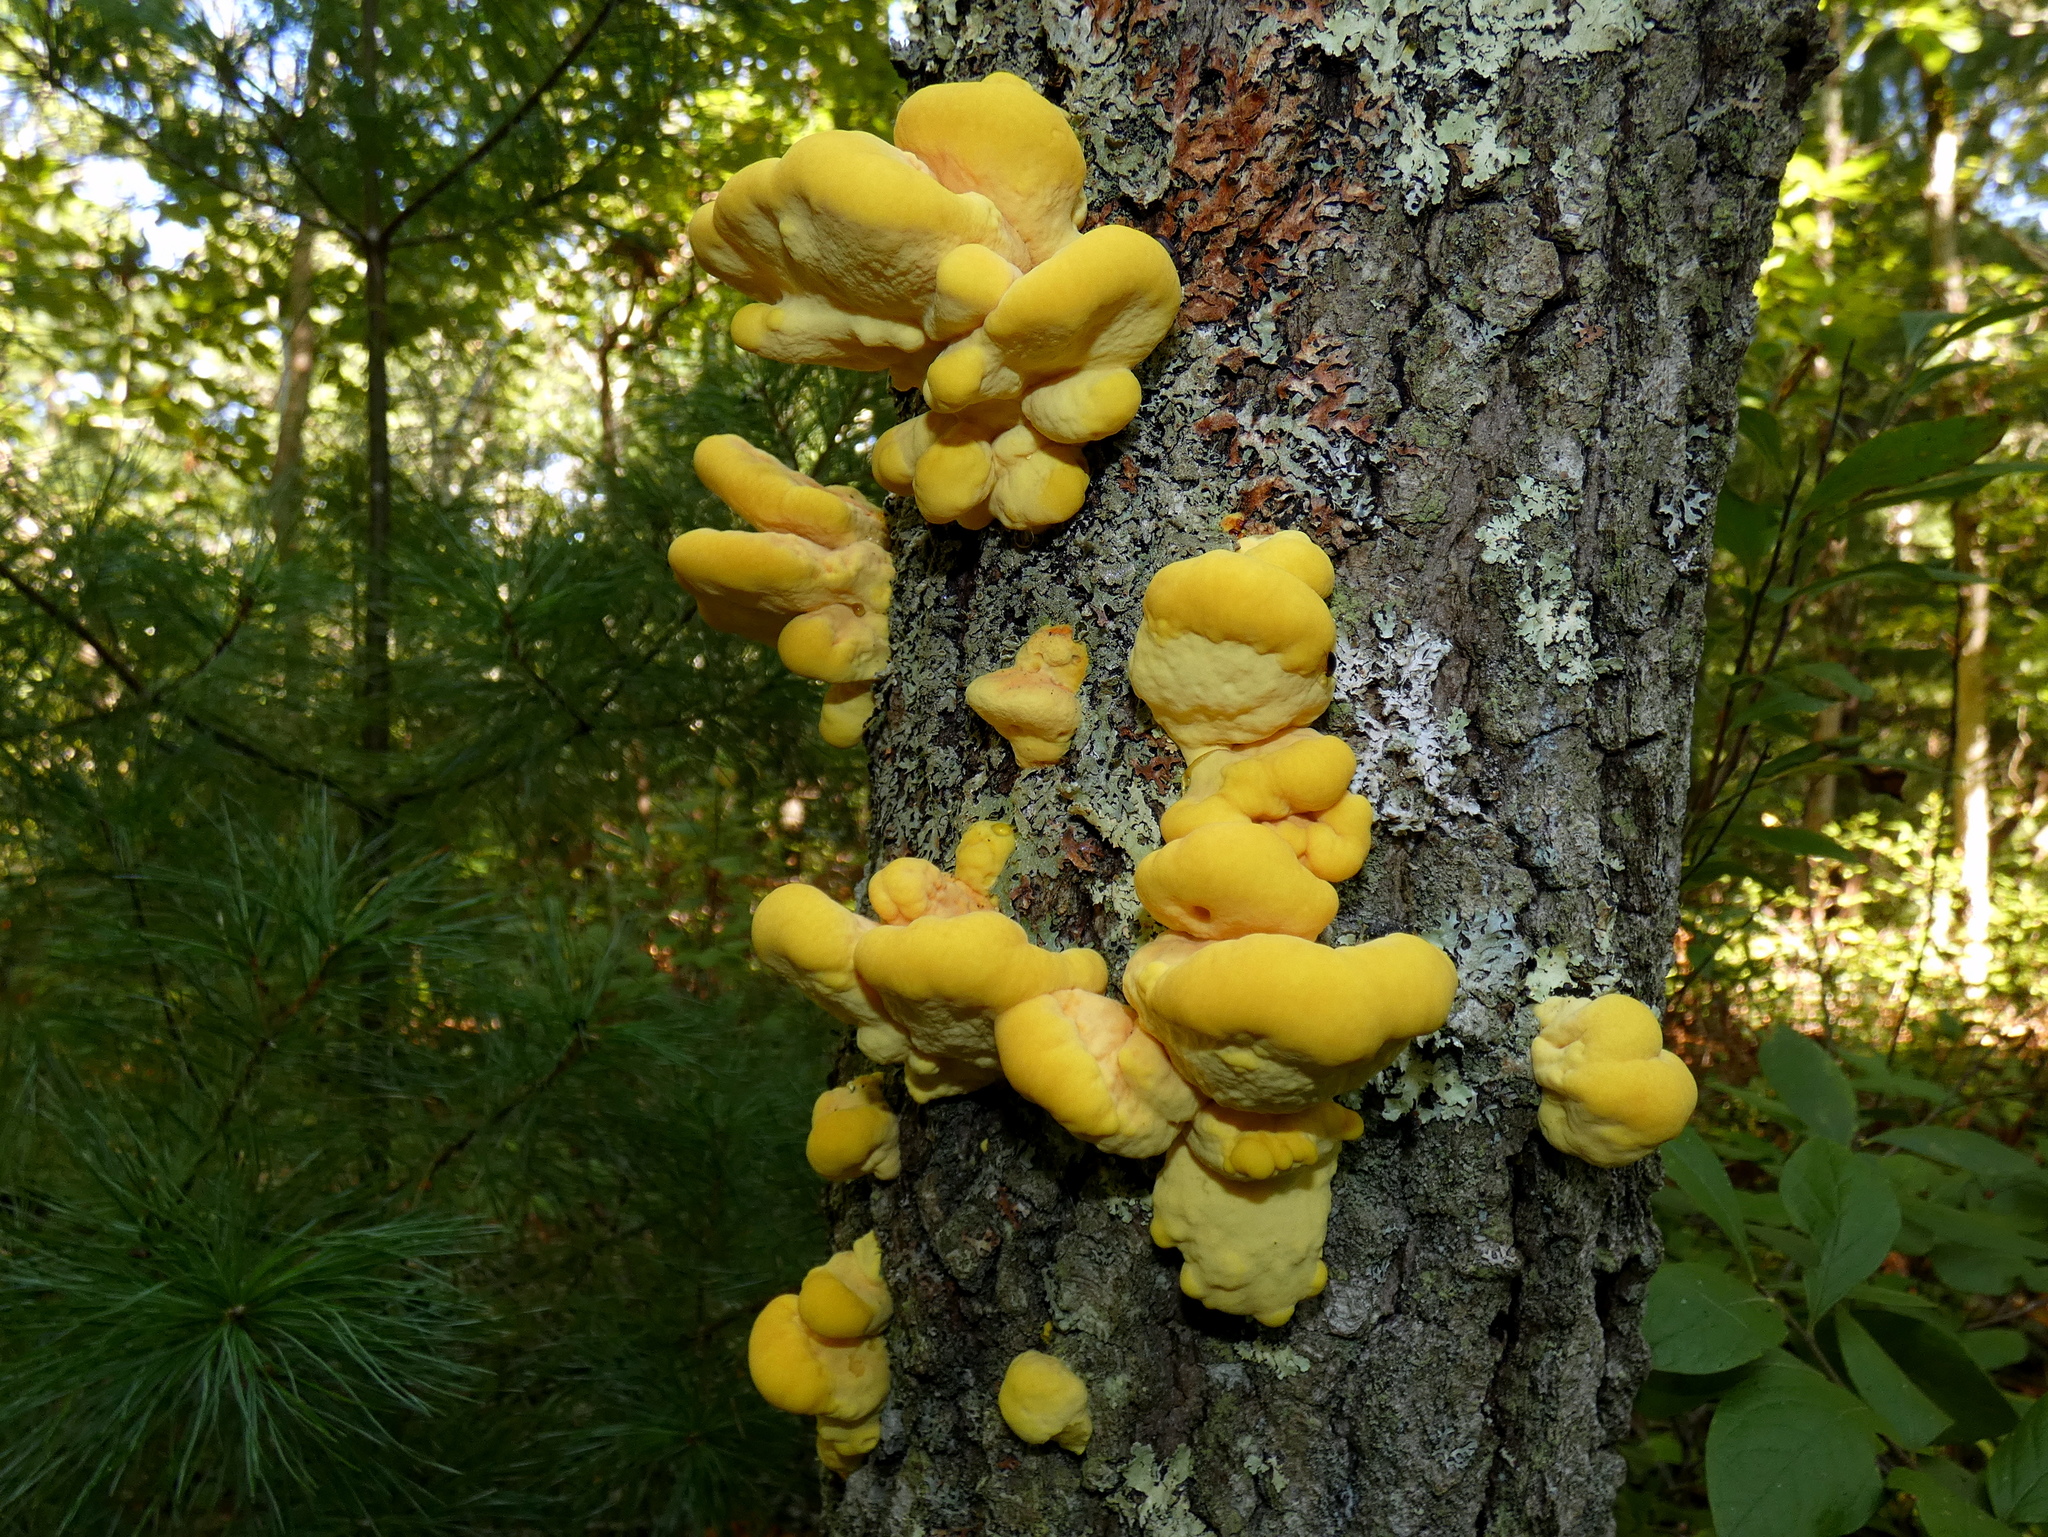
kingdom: Fungi
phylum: Basidiomycota
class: Agaricomycetes
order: Polyporales
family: Laetiporaceae
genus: Laetiporus
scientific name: Laetiporus sulphureus
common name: Chicken of the woods
